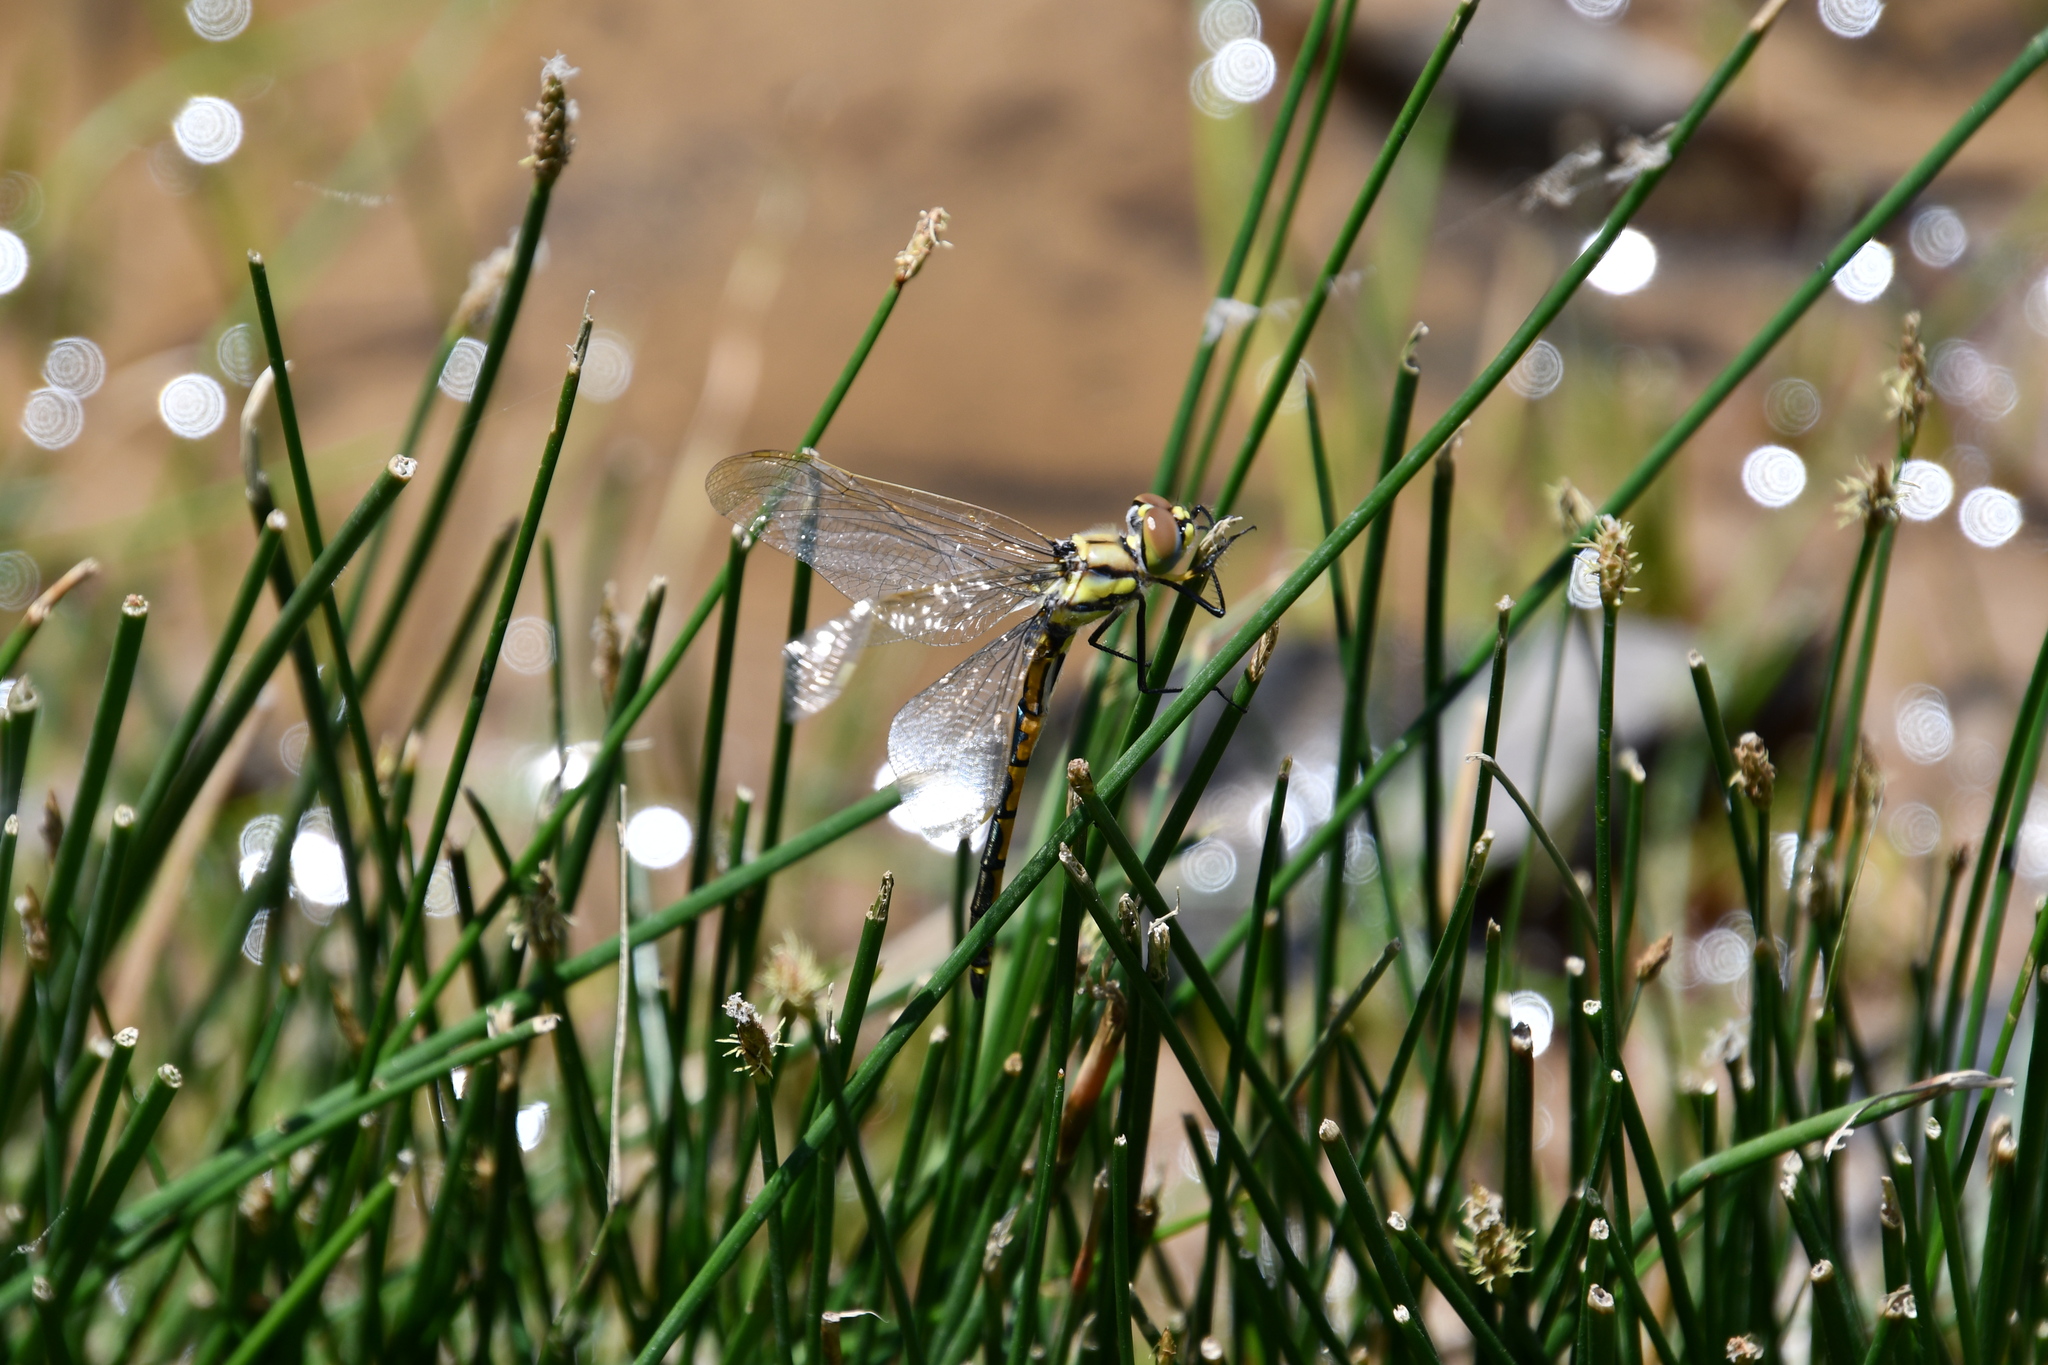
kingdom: Animalia
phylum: Arthropoda
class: Insecta
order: Odonata
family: Corduliidae
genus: Hemicordulia
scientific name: Hemicordulia tau
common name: Tau emerald
